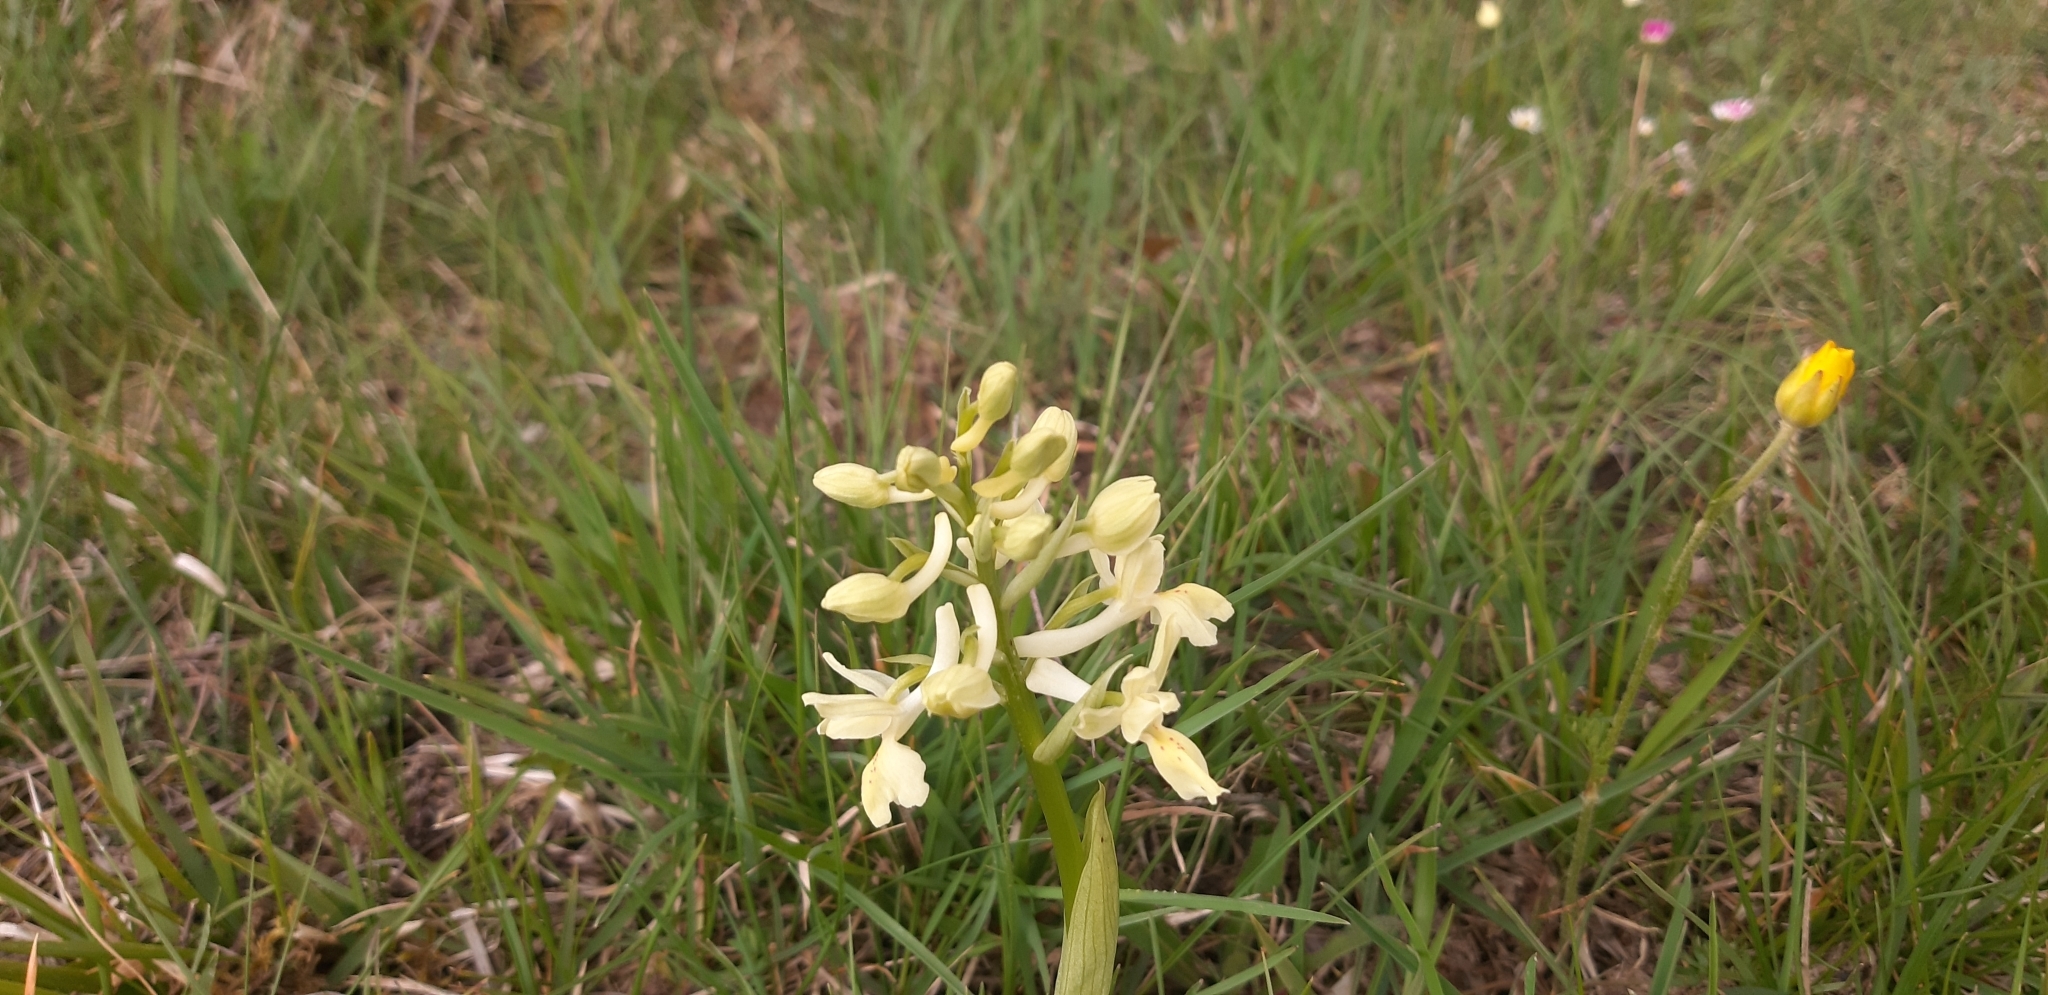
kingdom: Plantae
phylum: Tracheophyta
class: Liliopsida
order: Asparagales
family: Orchidaceae
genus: Orchis
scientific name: Orchis provincialis
